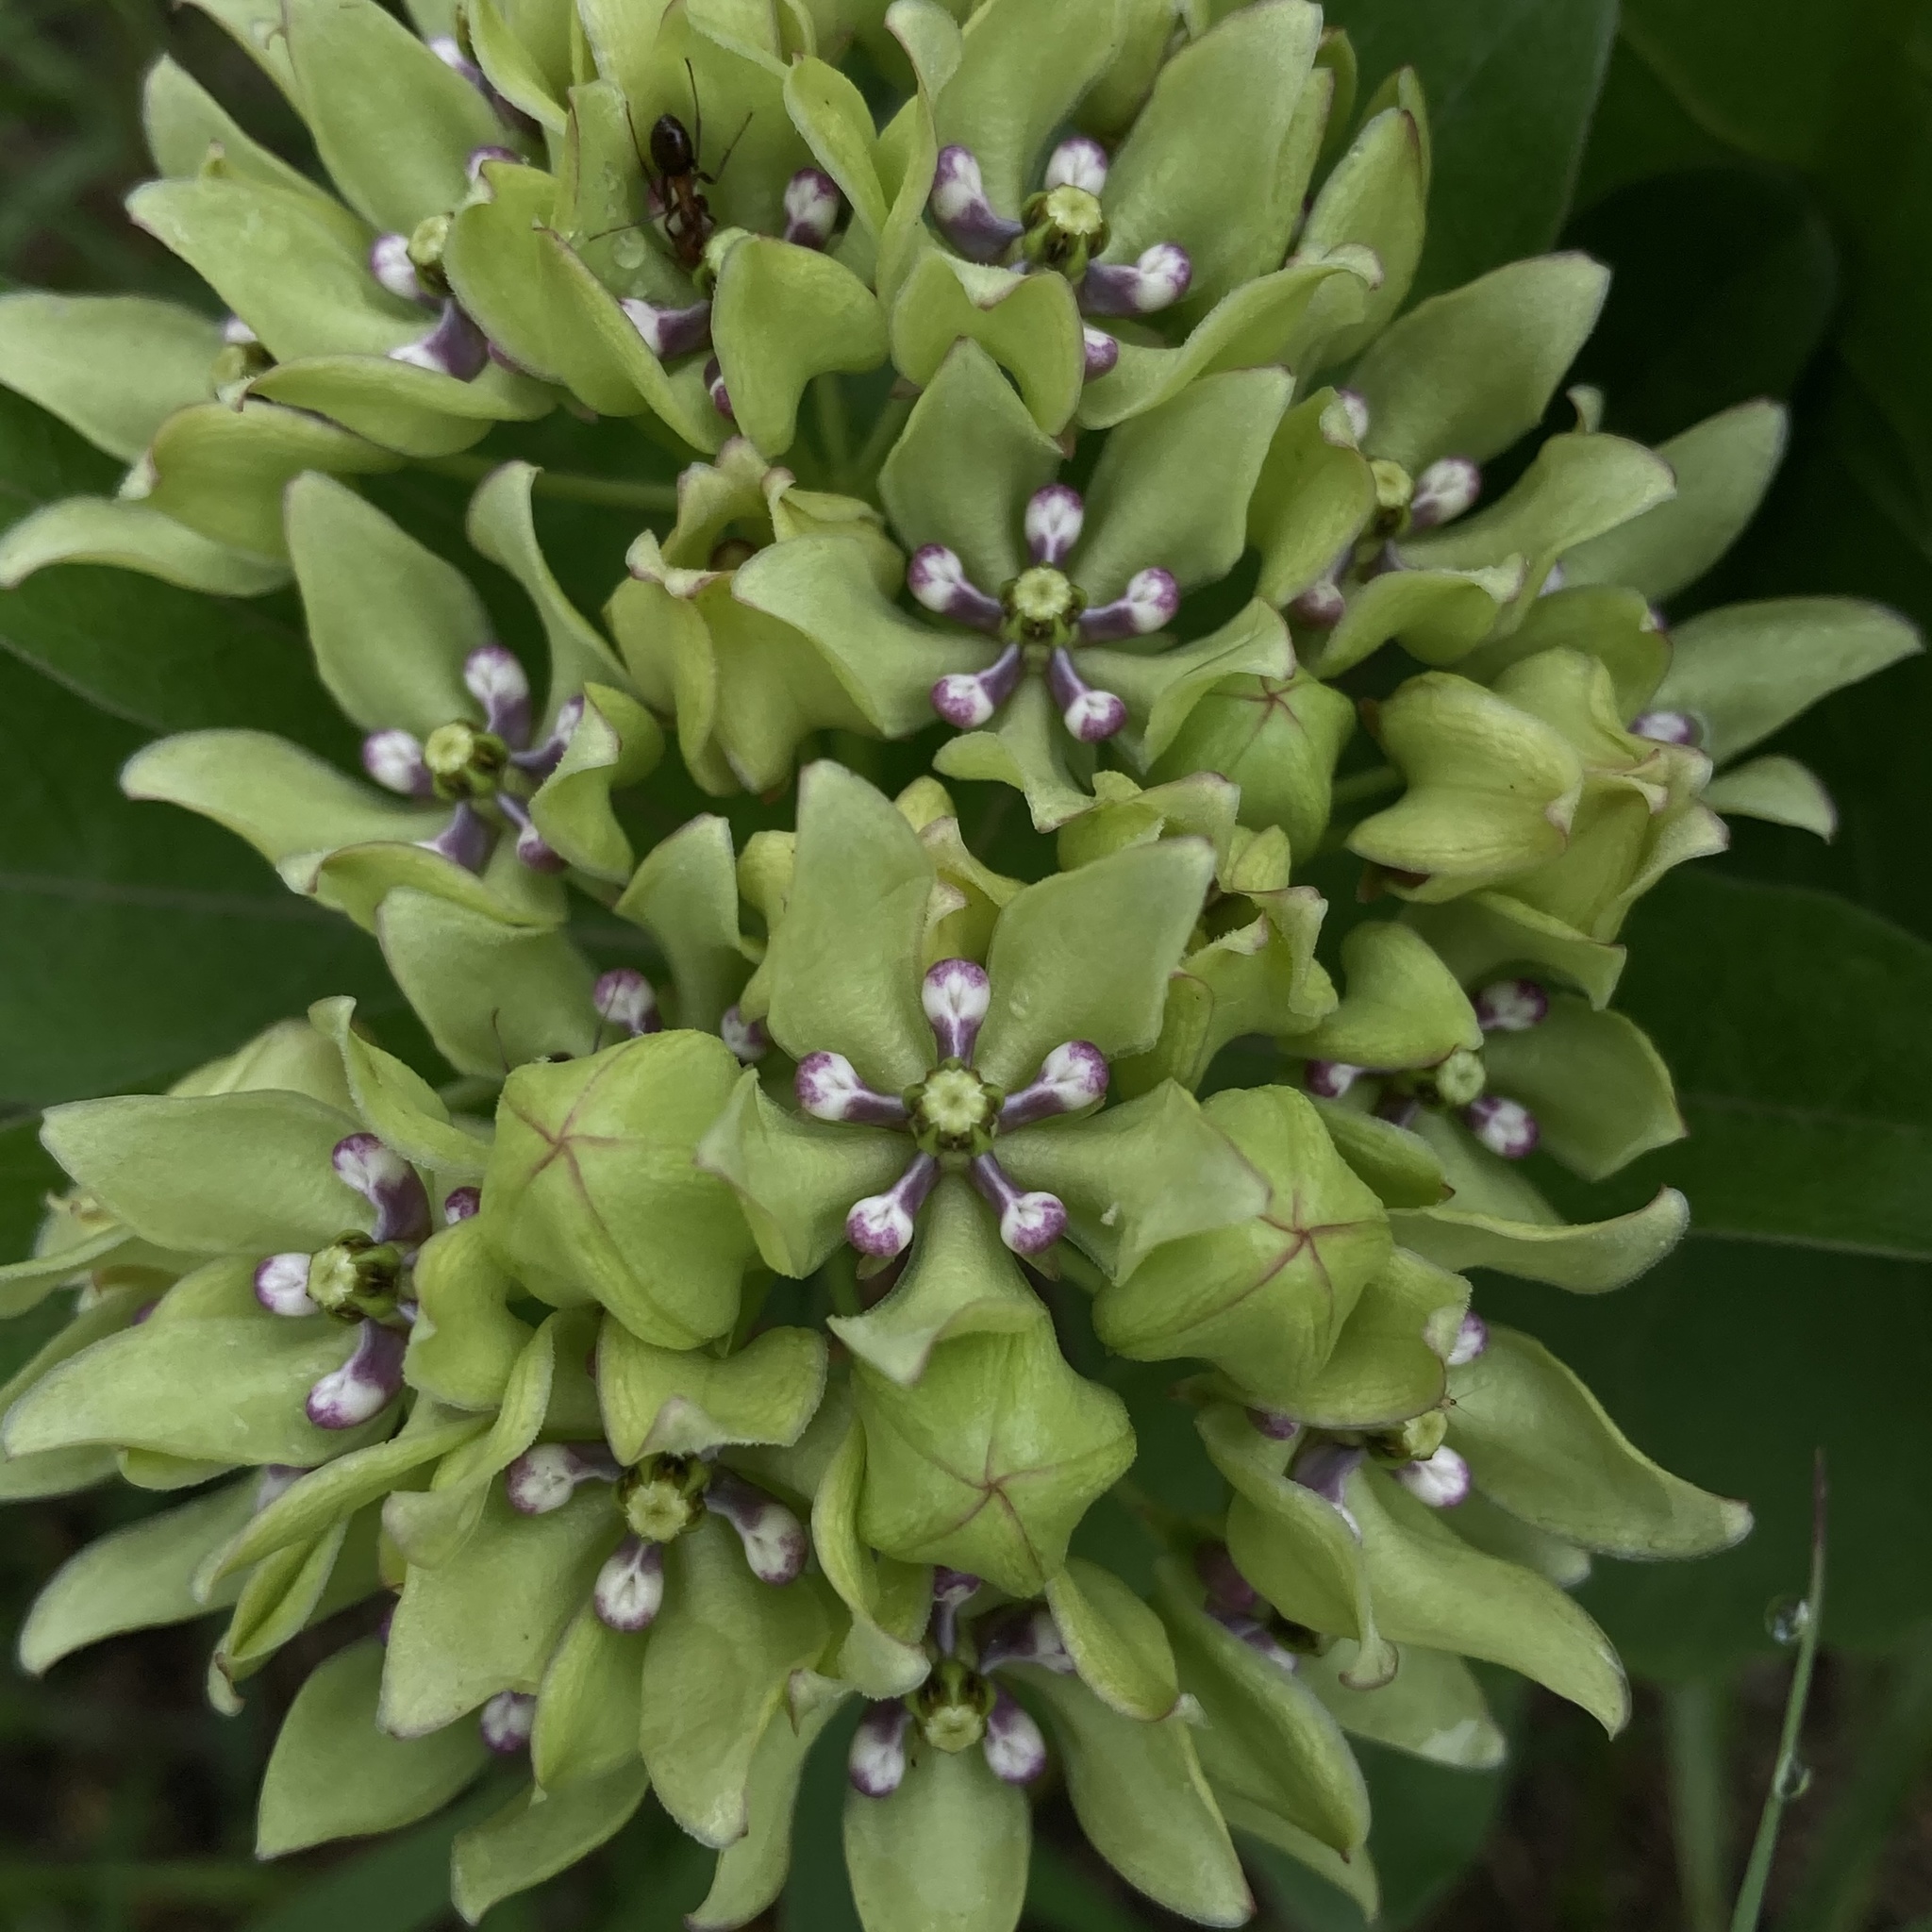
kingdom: Plantae
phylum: Tracheophyta
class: Magnoliopsida
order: Gentianales
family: Apocynaceae
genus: Asclepias
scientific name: Asclepias viridis
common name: Antelope-horns
